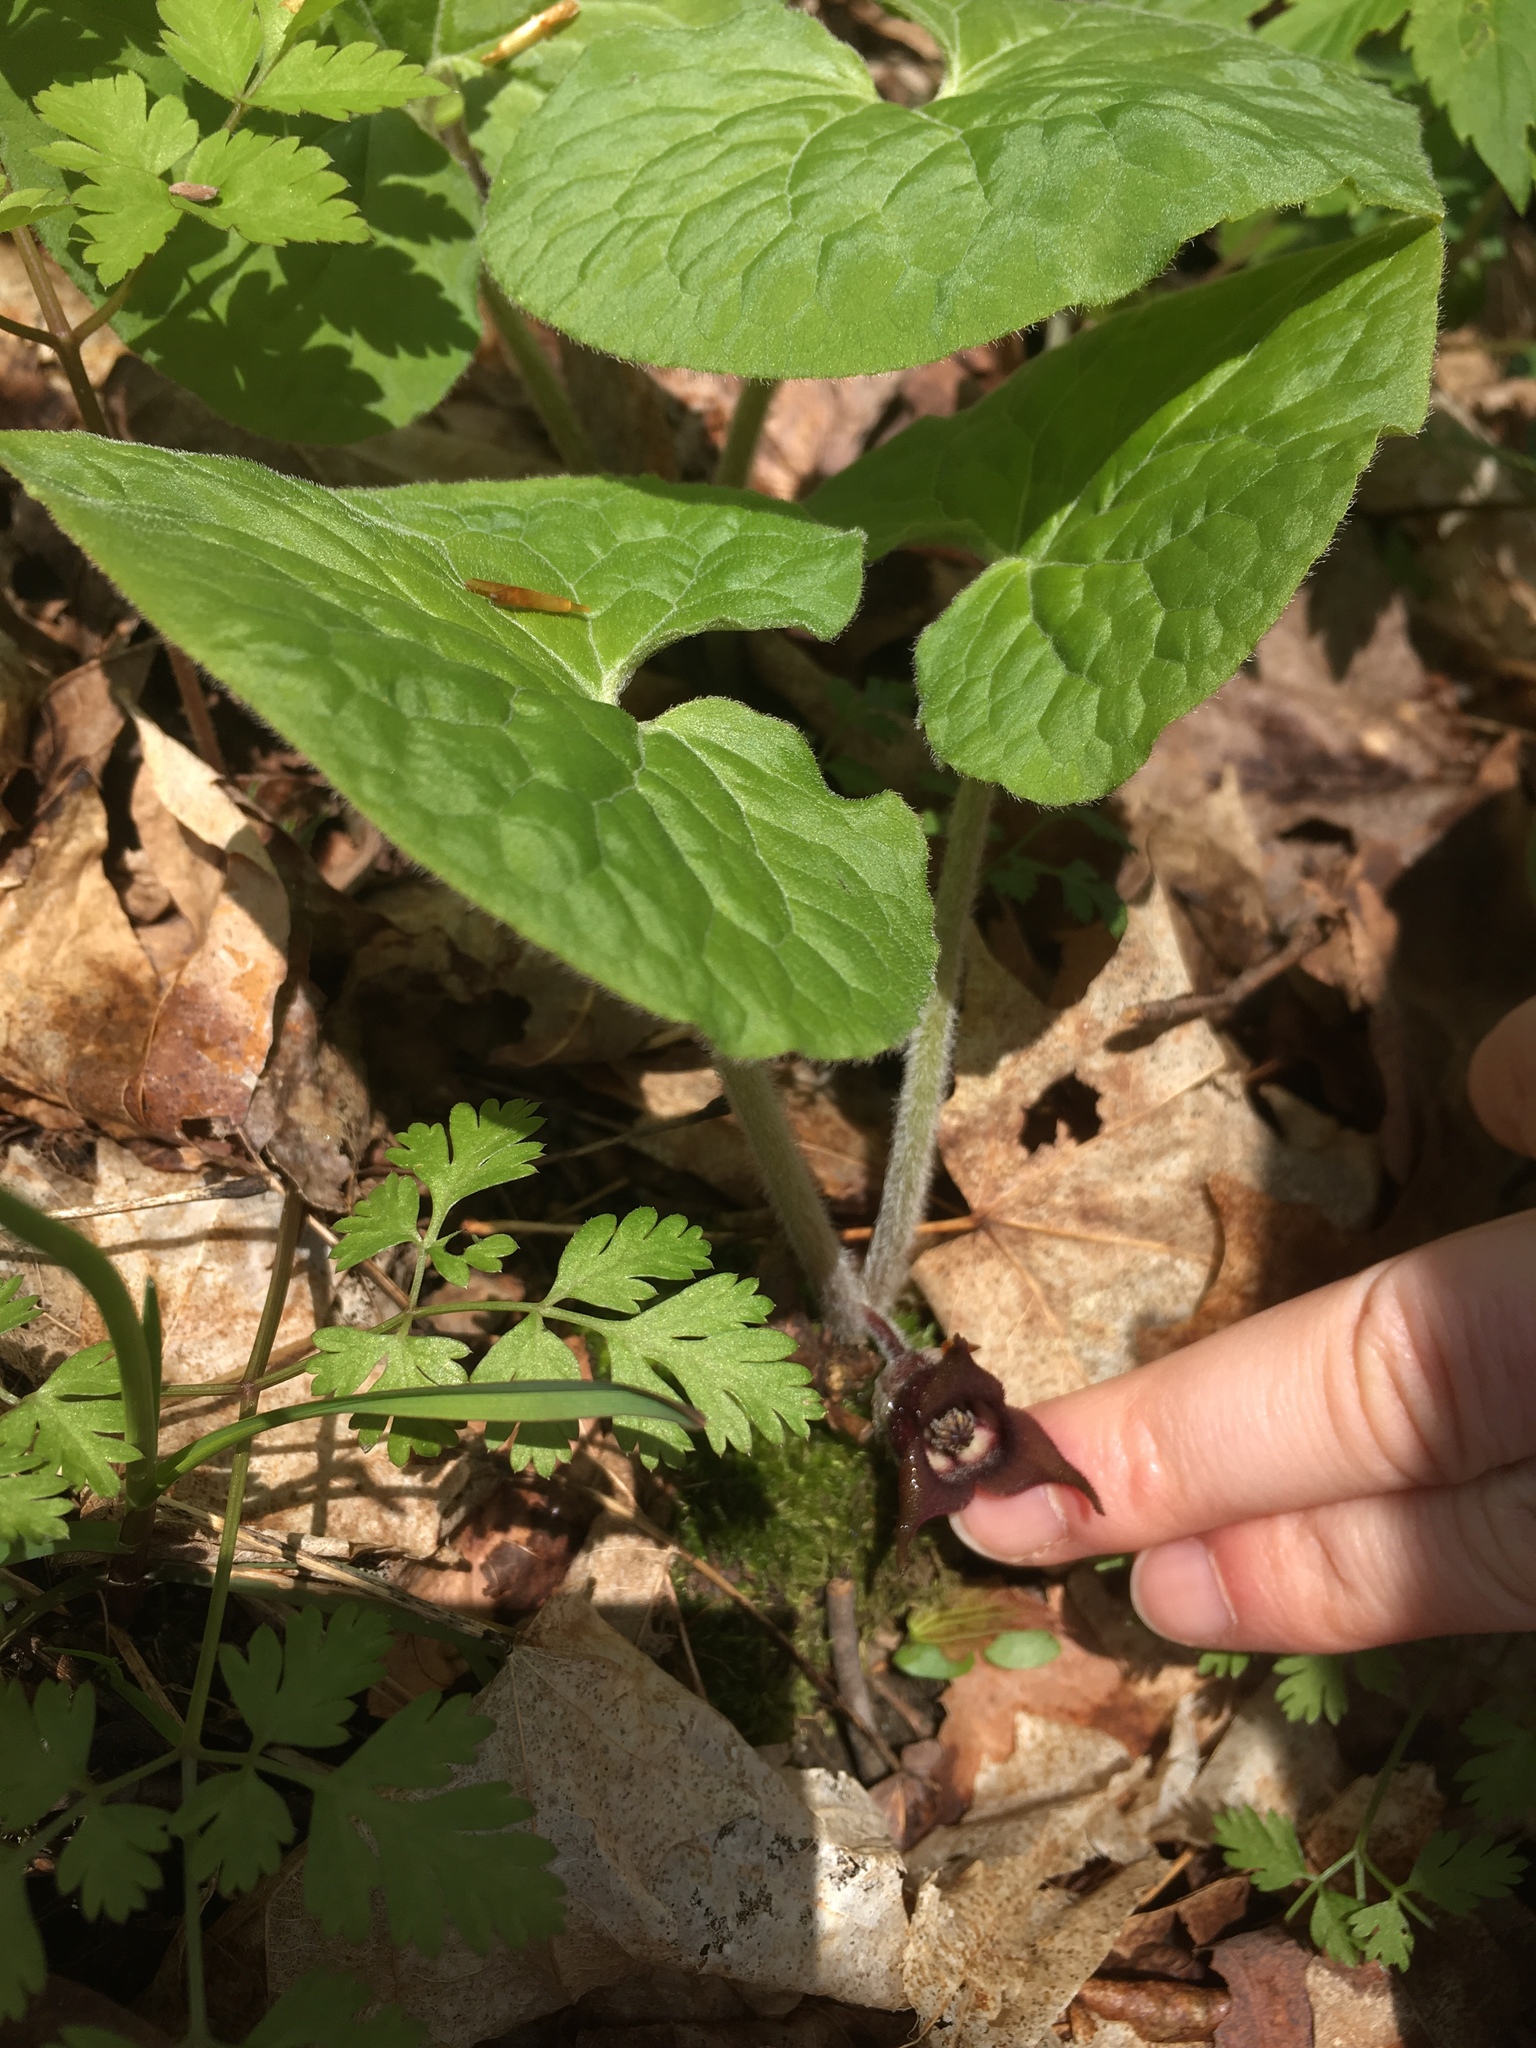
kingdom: Plantae
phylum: Tracheophyta
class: Magnoliopsida
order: Piperales
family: Aristolochiaceae
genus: Asarum
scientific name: Asarum canadense
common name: Wild ginger
